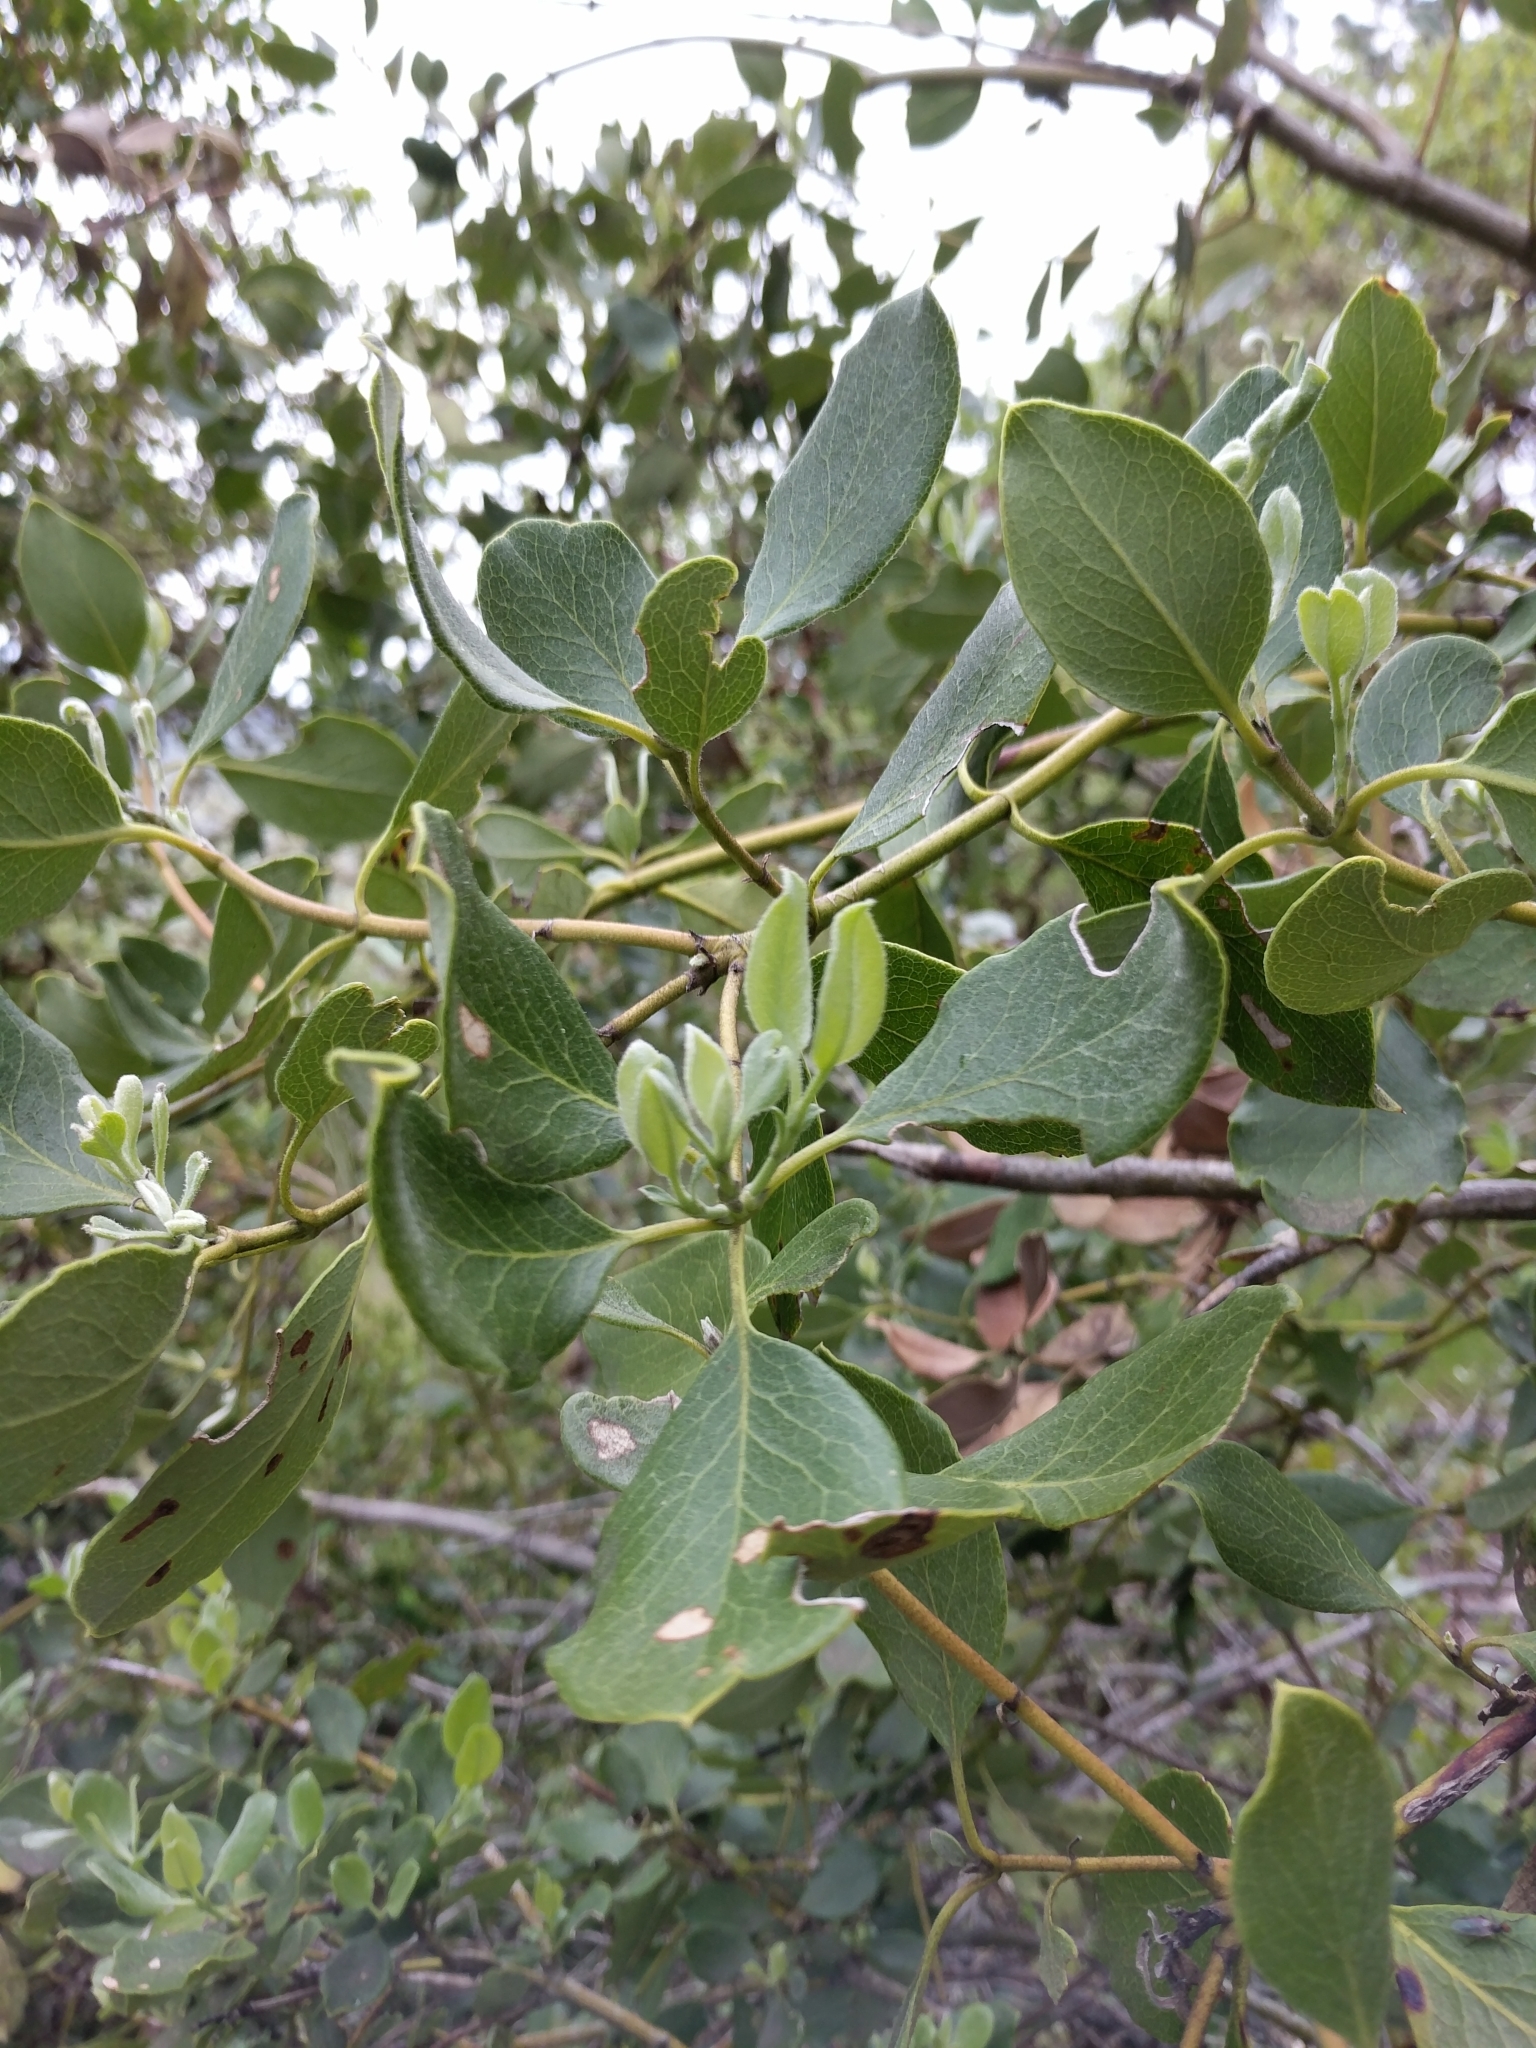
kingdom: Plantae
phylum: Tracheophyta
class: Magnoliopsida
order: Garryales
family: Garryaceae
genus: Garrya
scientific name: Garrya fremontii
